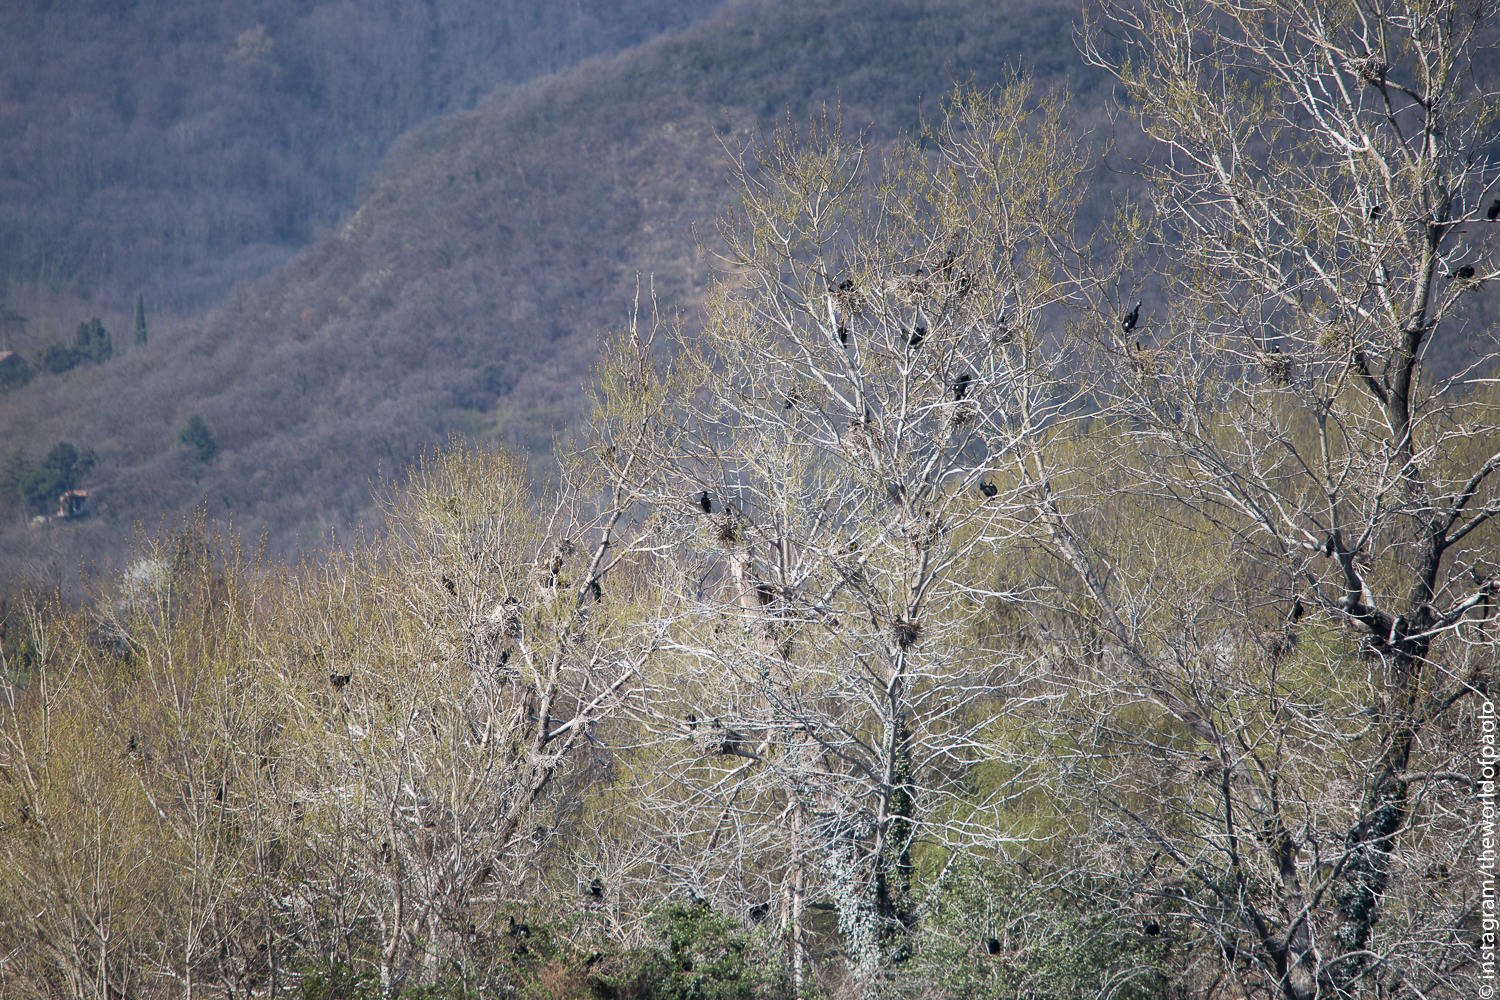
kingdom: Animalia
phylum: Chordata
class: Aves
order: Suliformes
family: Phalacrocoracidae
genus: Phalacrocorax
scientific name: Phalacrocorax carbo
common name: Great cormorant
